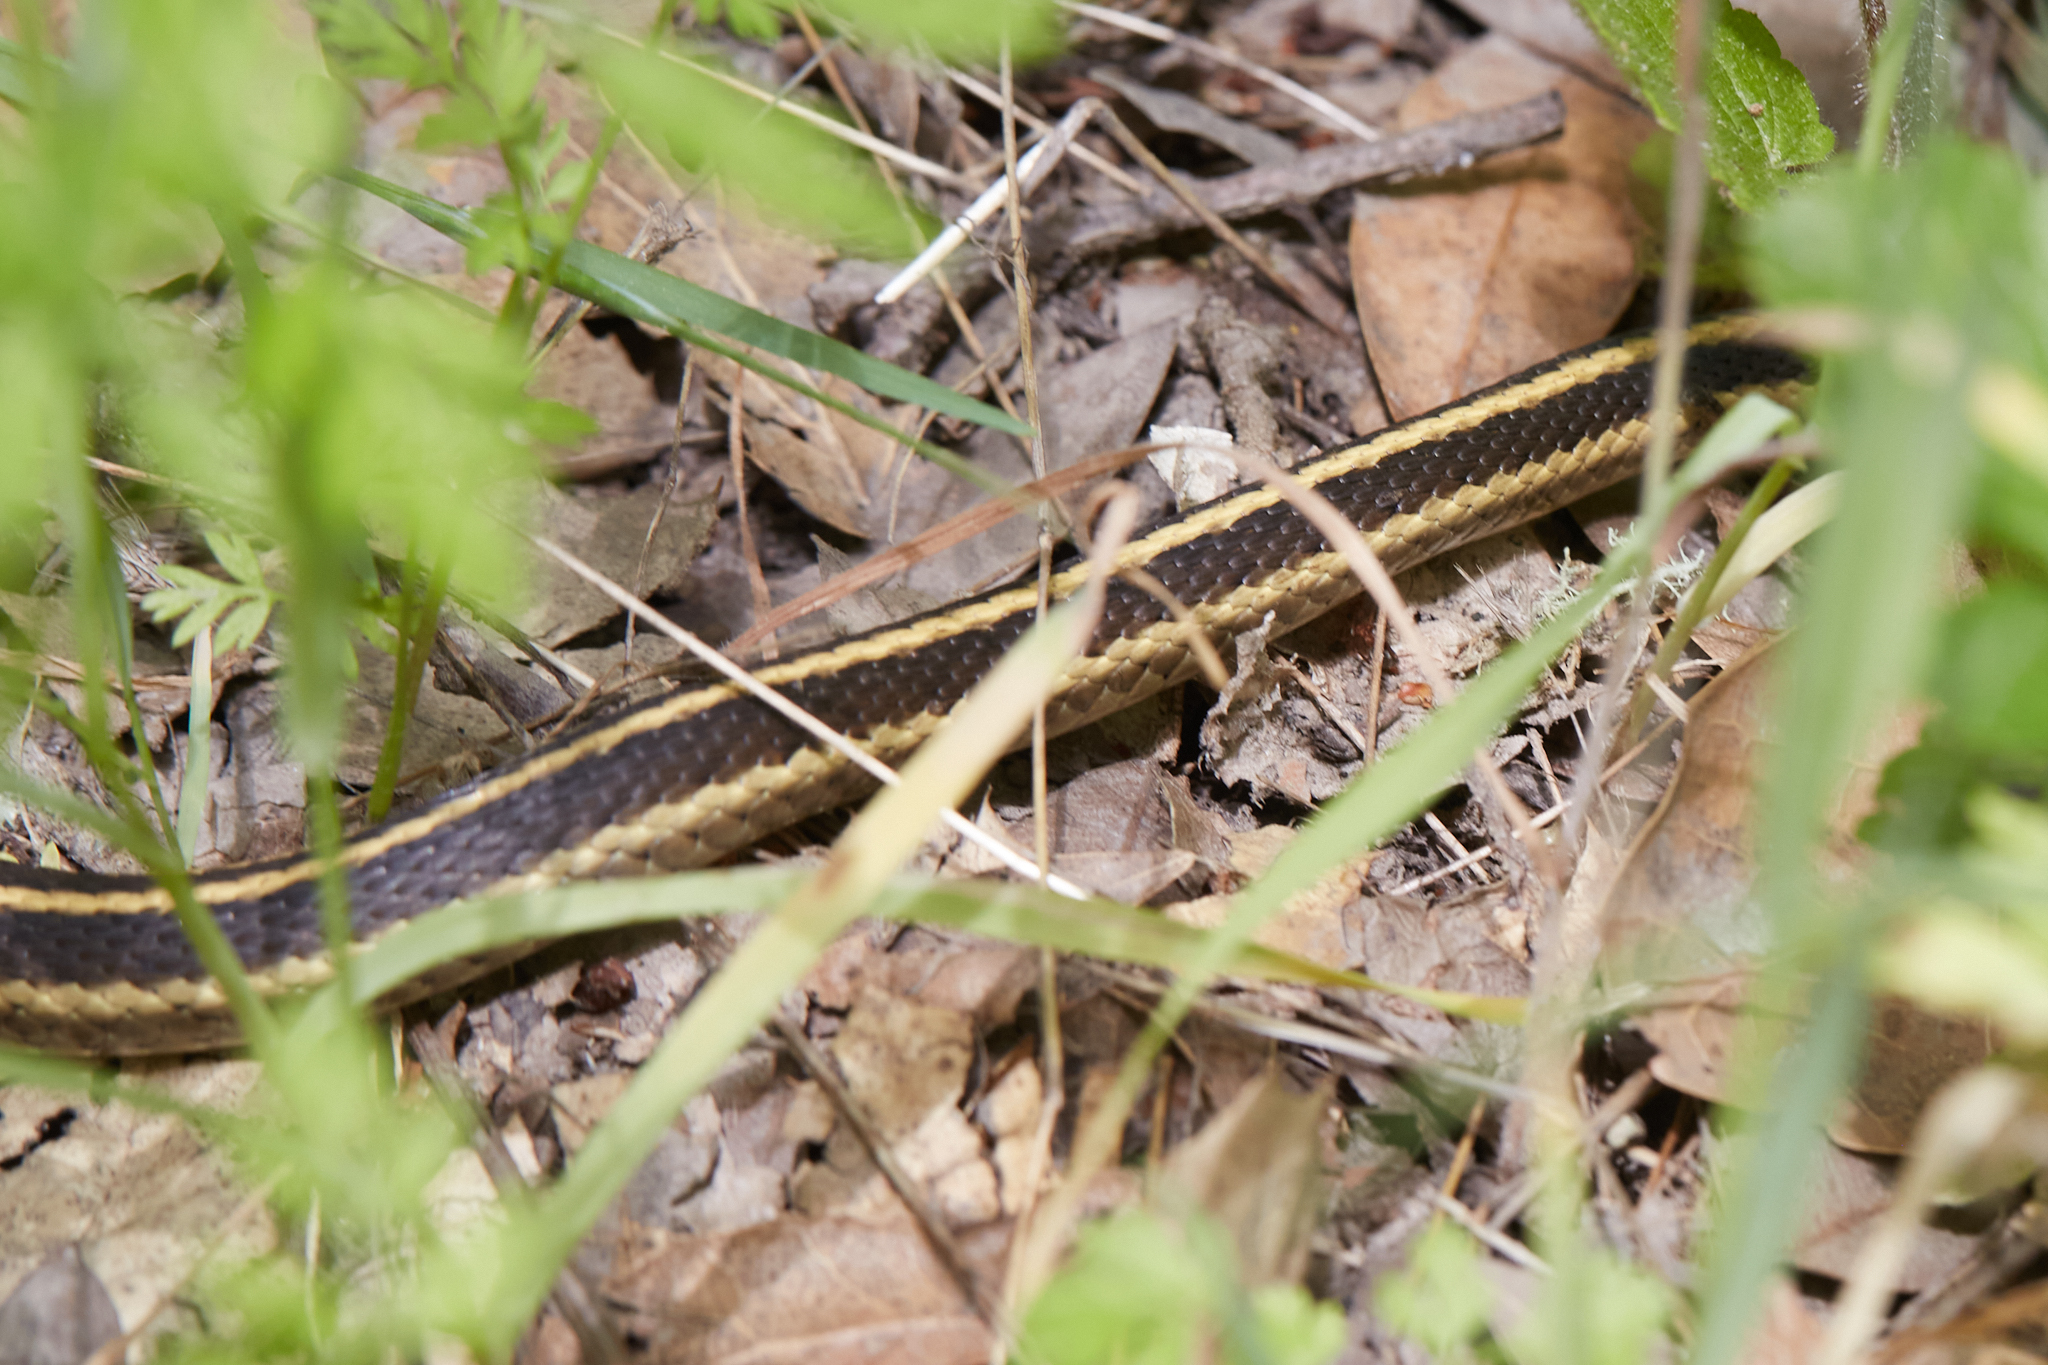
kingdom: Animalia
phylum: Chordata
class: Squamata
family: Colubridae
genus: Thamnophis
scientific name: Thamnophis elegans
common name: Western terrestrial garter snake
